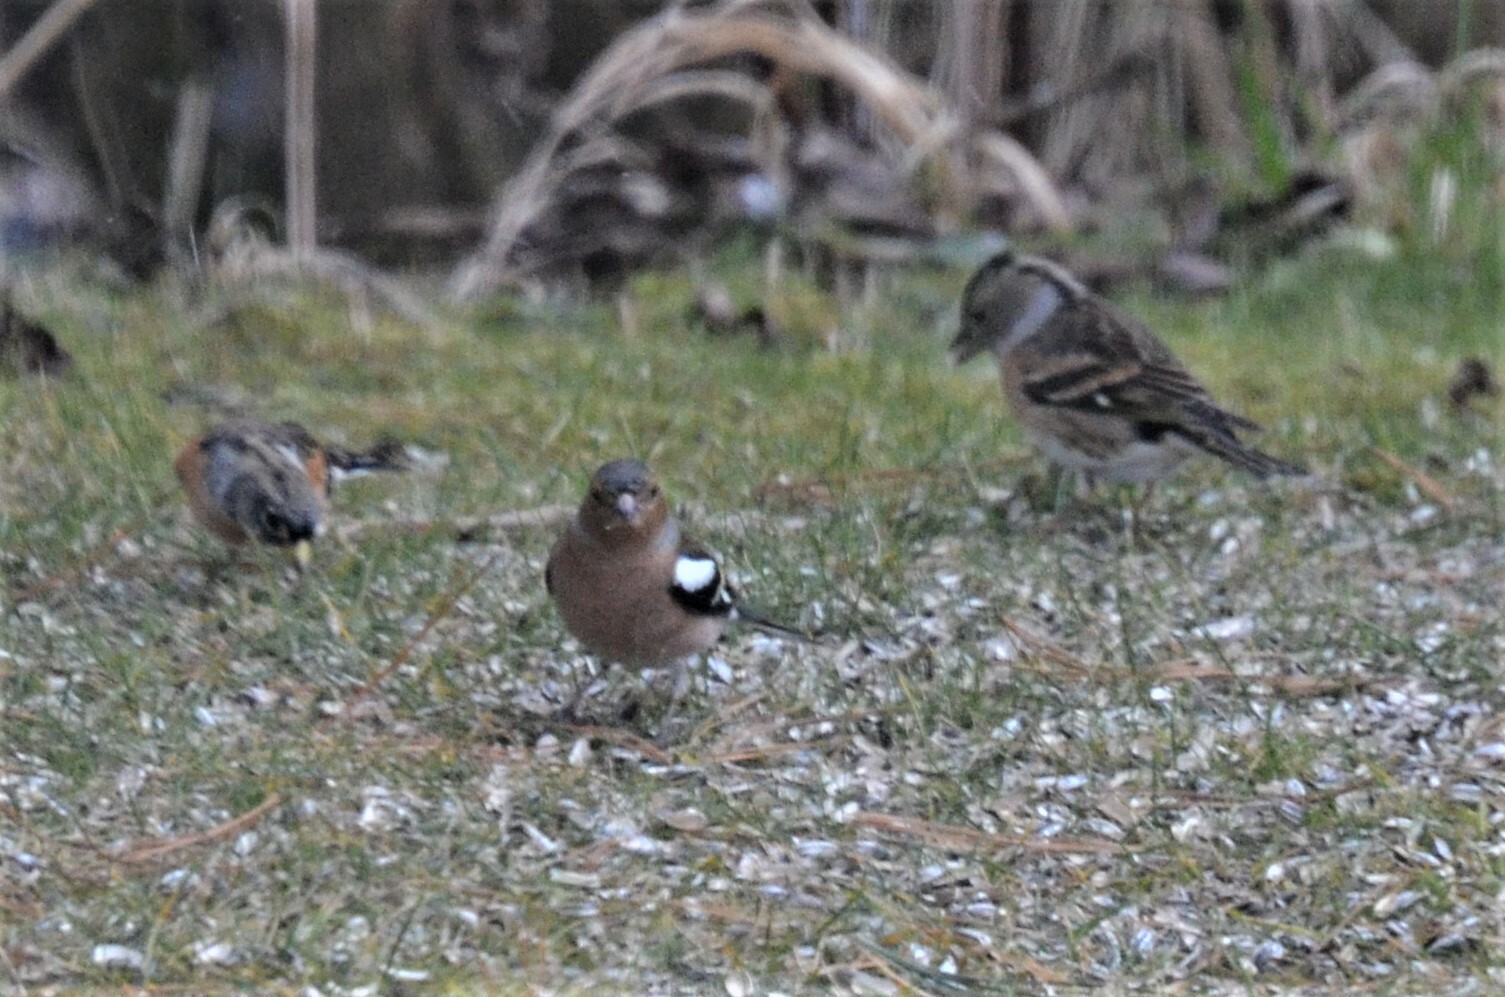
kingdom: Animalia
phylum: Chordata
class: Aves
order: Passeriformes
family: Fringillidae
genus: Fringilla
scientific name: Fringilla coelebs
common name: Common chaffinch
